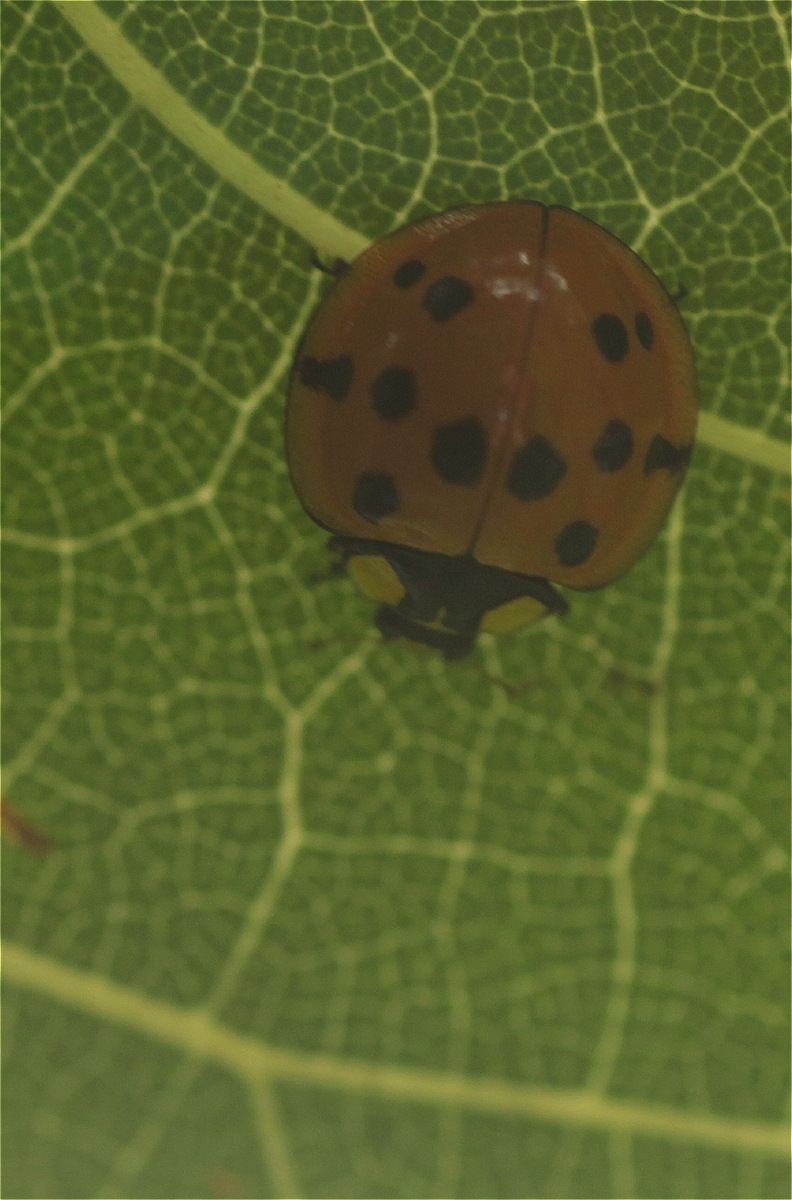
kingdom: Animalia
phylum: Arthropoda
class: Insecta
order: Coleoptera
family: Coccinellidae
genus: Neda
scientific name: Neda aequatoriana
